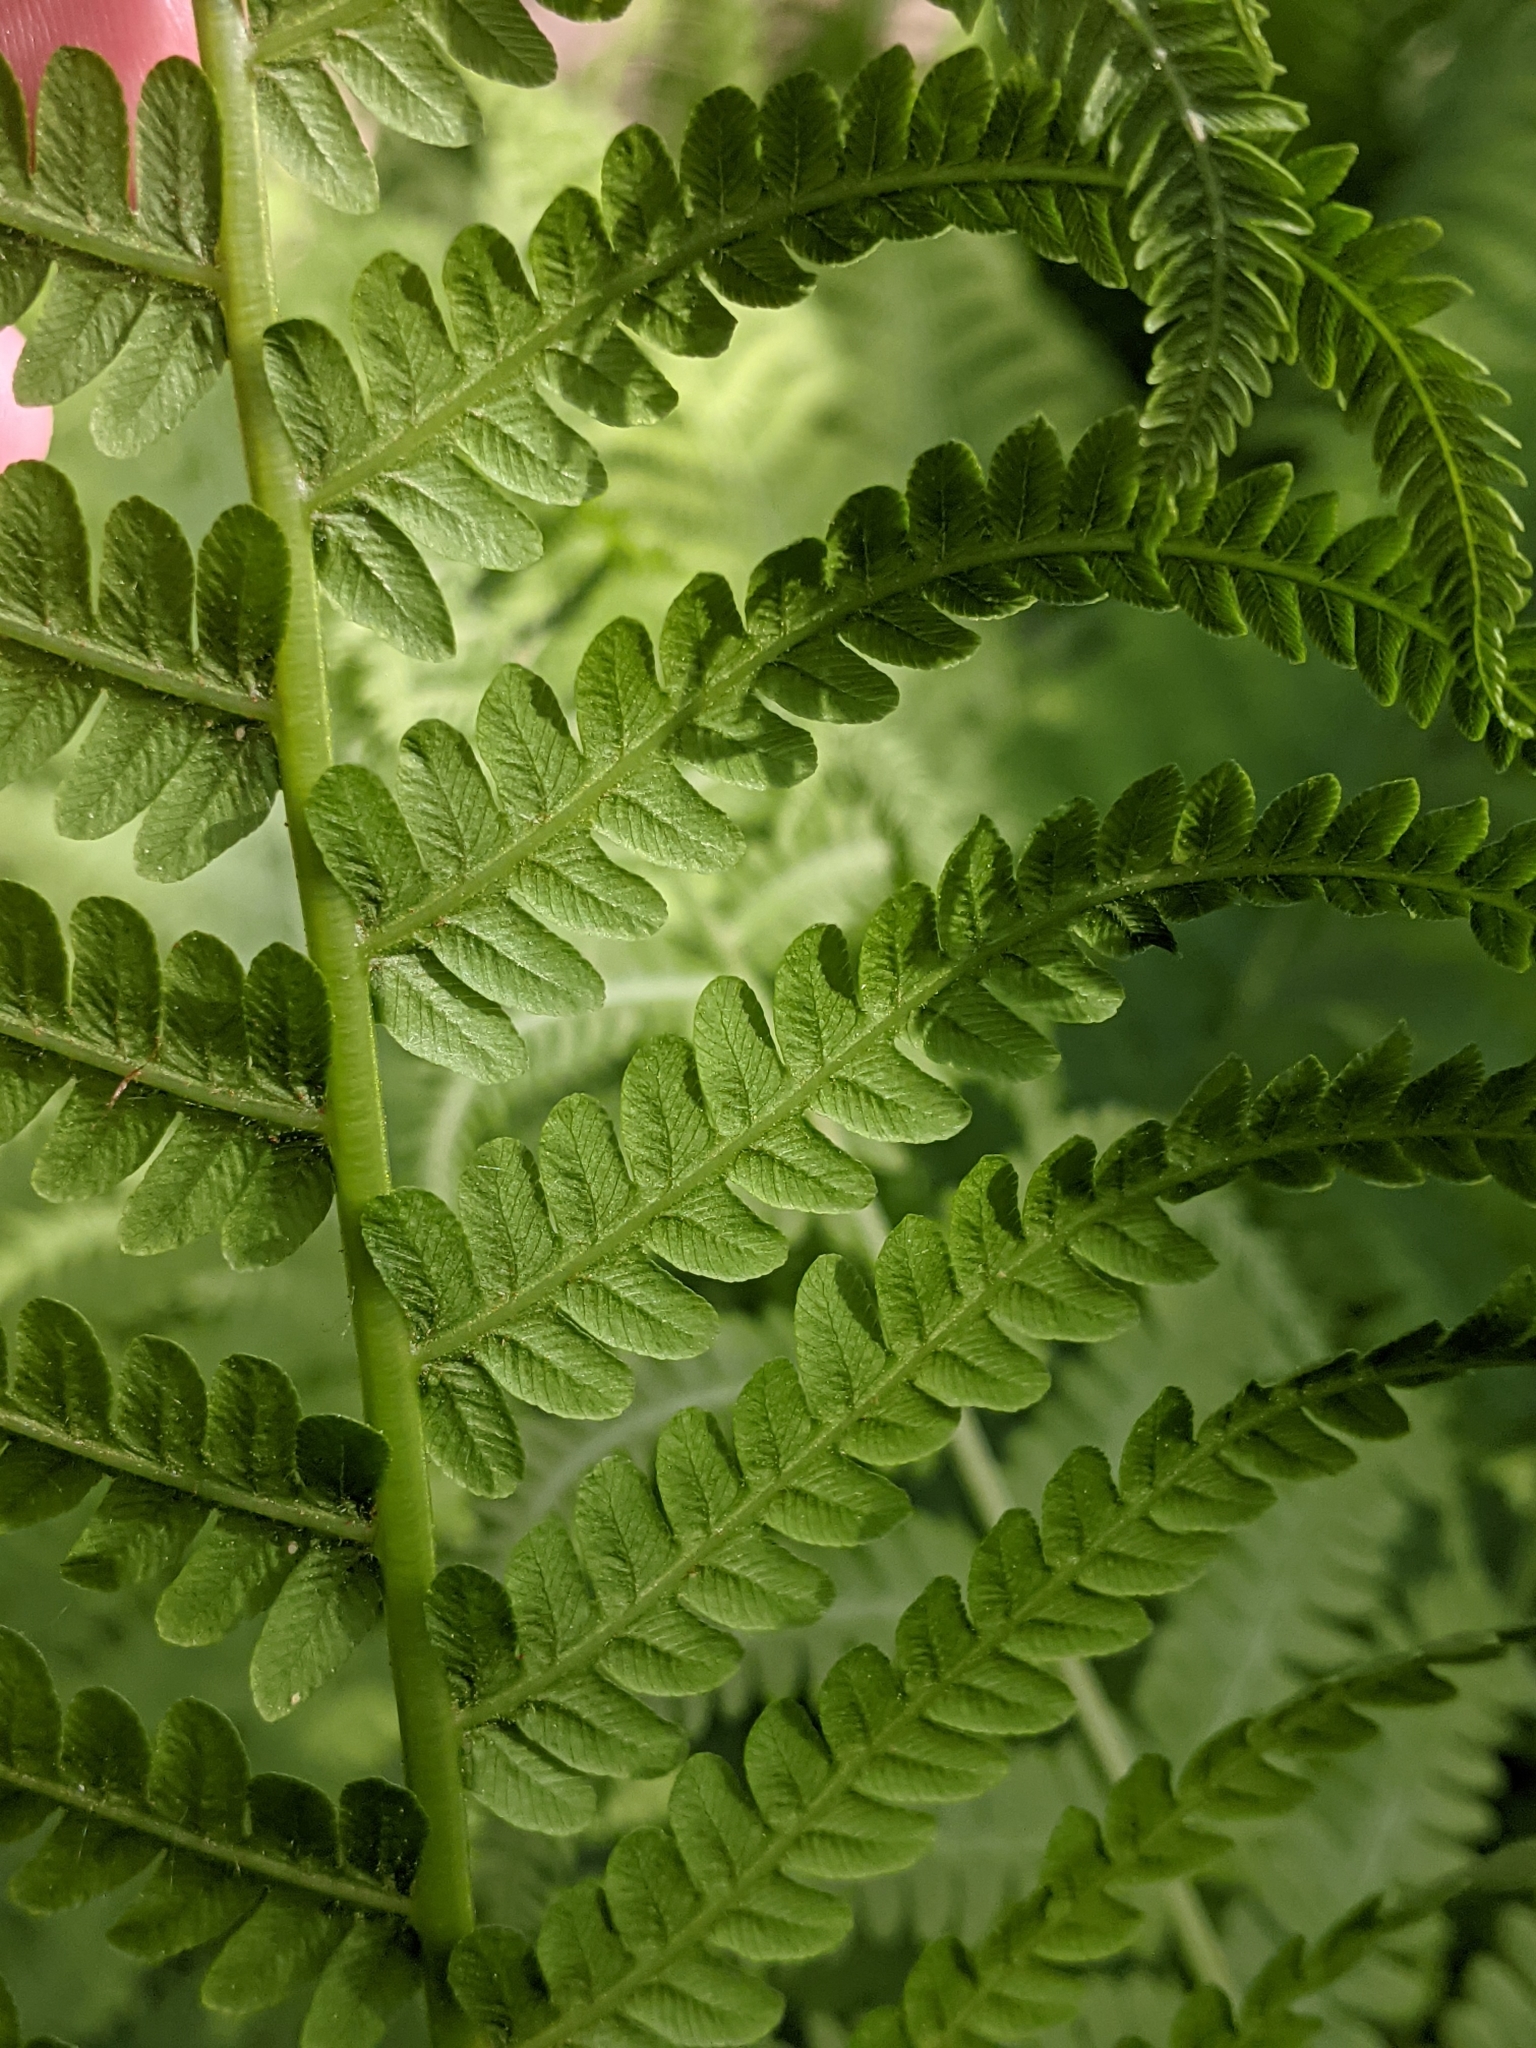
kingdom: Plantae
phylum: Tracheophyta
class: Polypodiopsida
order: Polypodiales
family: Onocleaceae
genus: Matteuccia
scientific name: Matteuccia struthiopteris
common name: Ostrich fern
